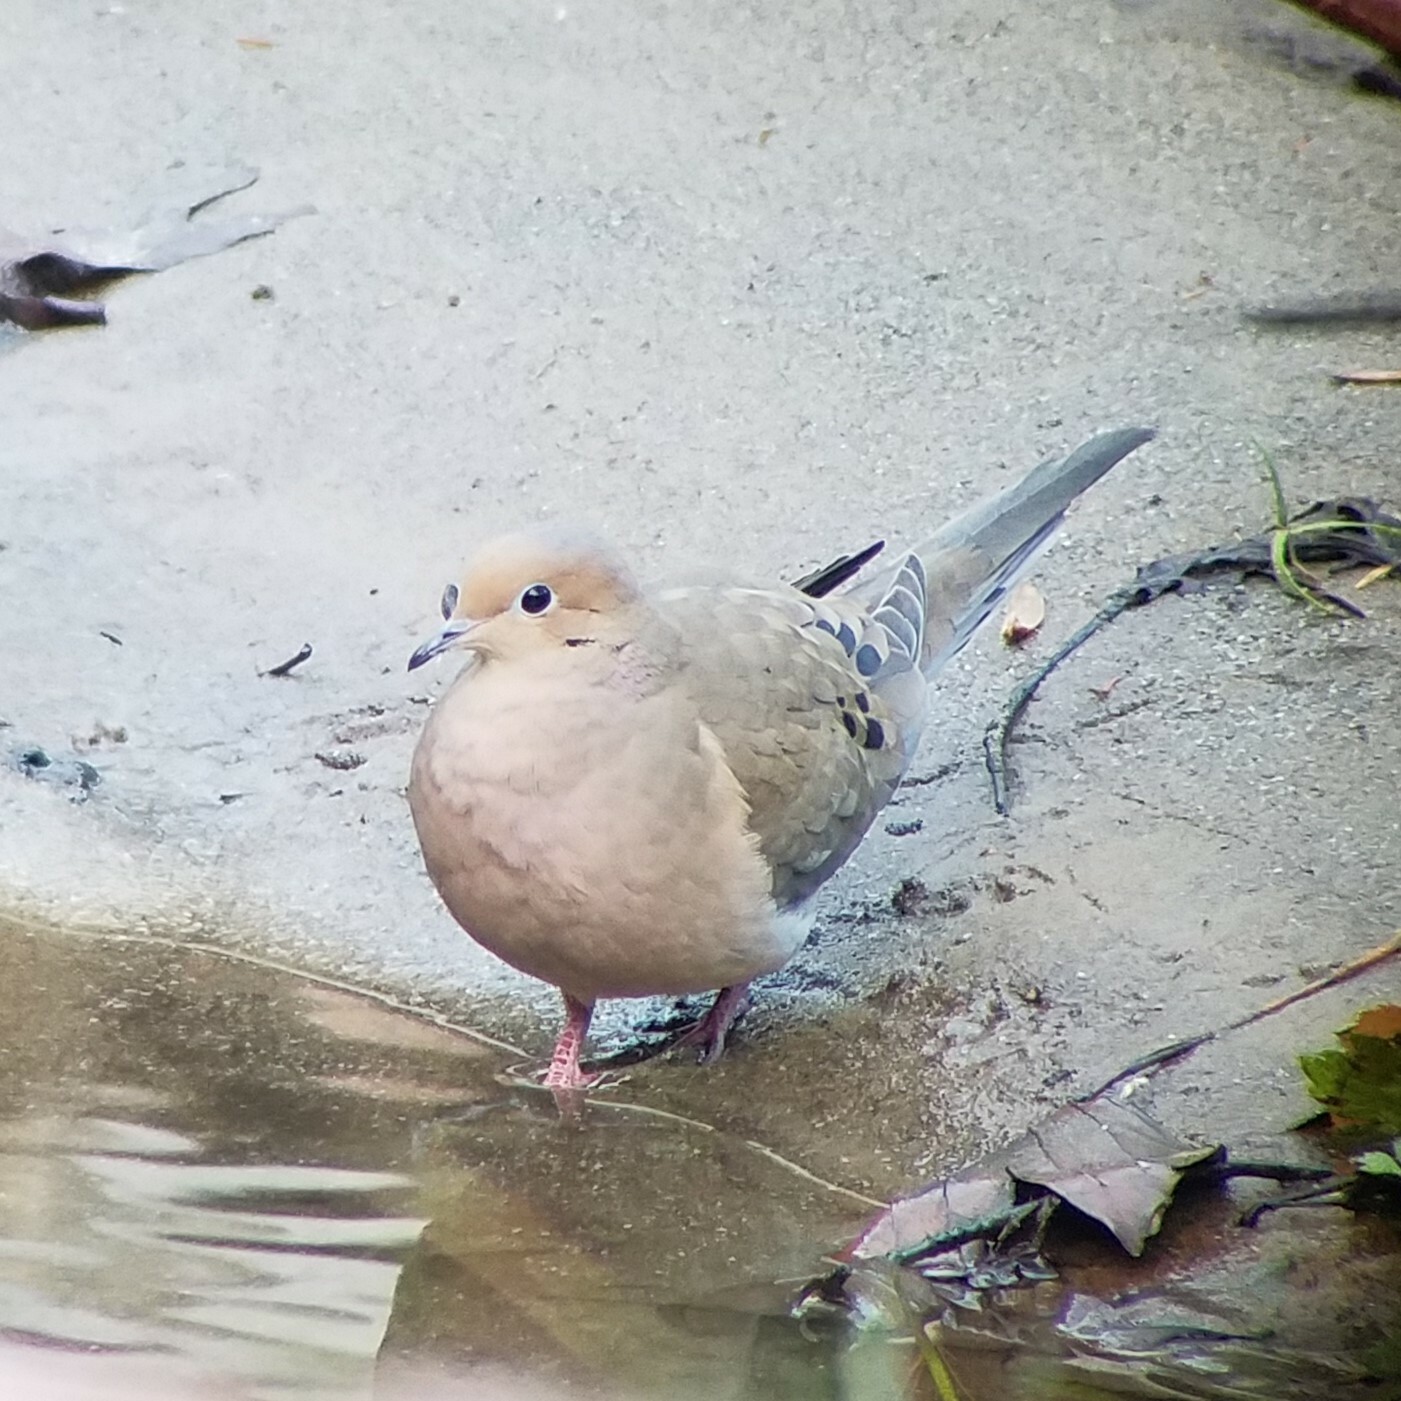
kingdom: Animalia
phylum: Chordata
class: Aves
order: Columbiformes
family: Columbidae
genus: Zenaida
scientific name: Zenaida macroura
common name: Mourning dove
